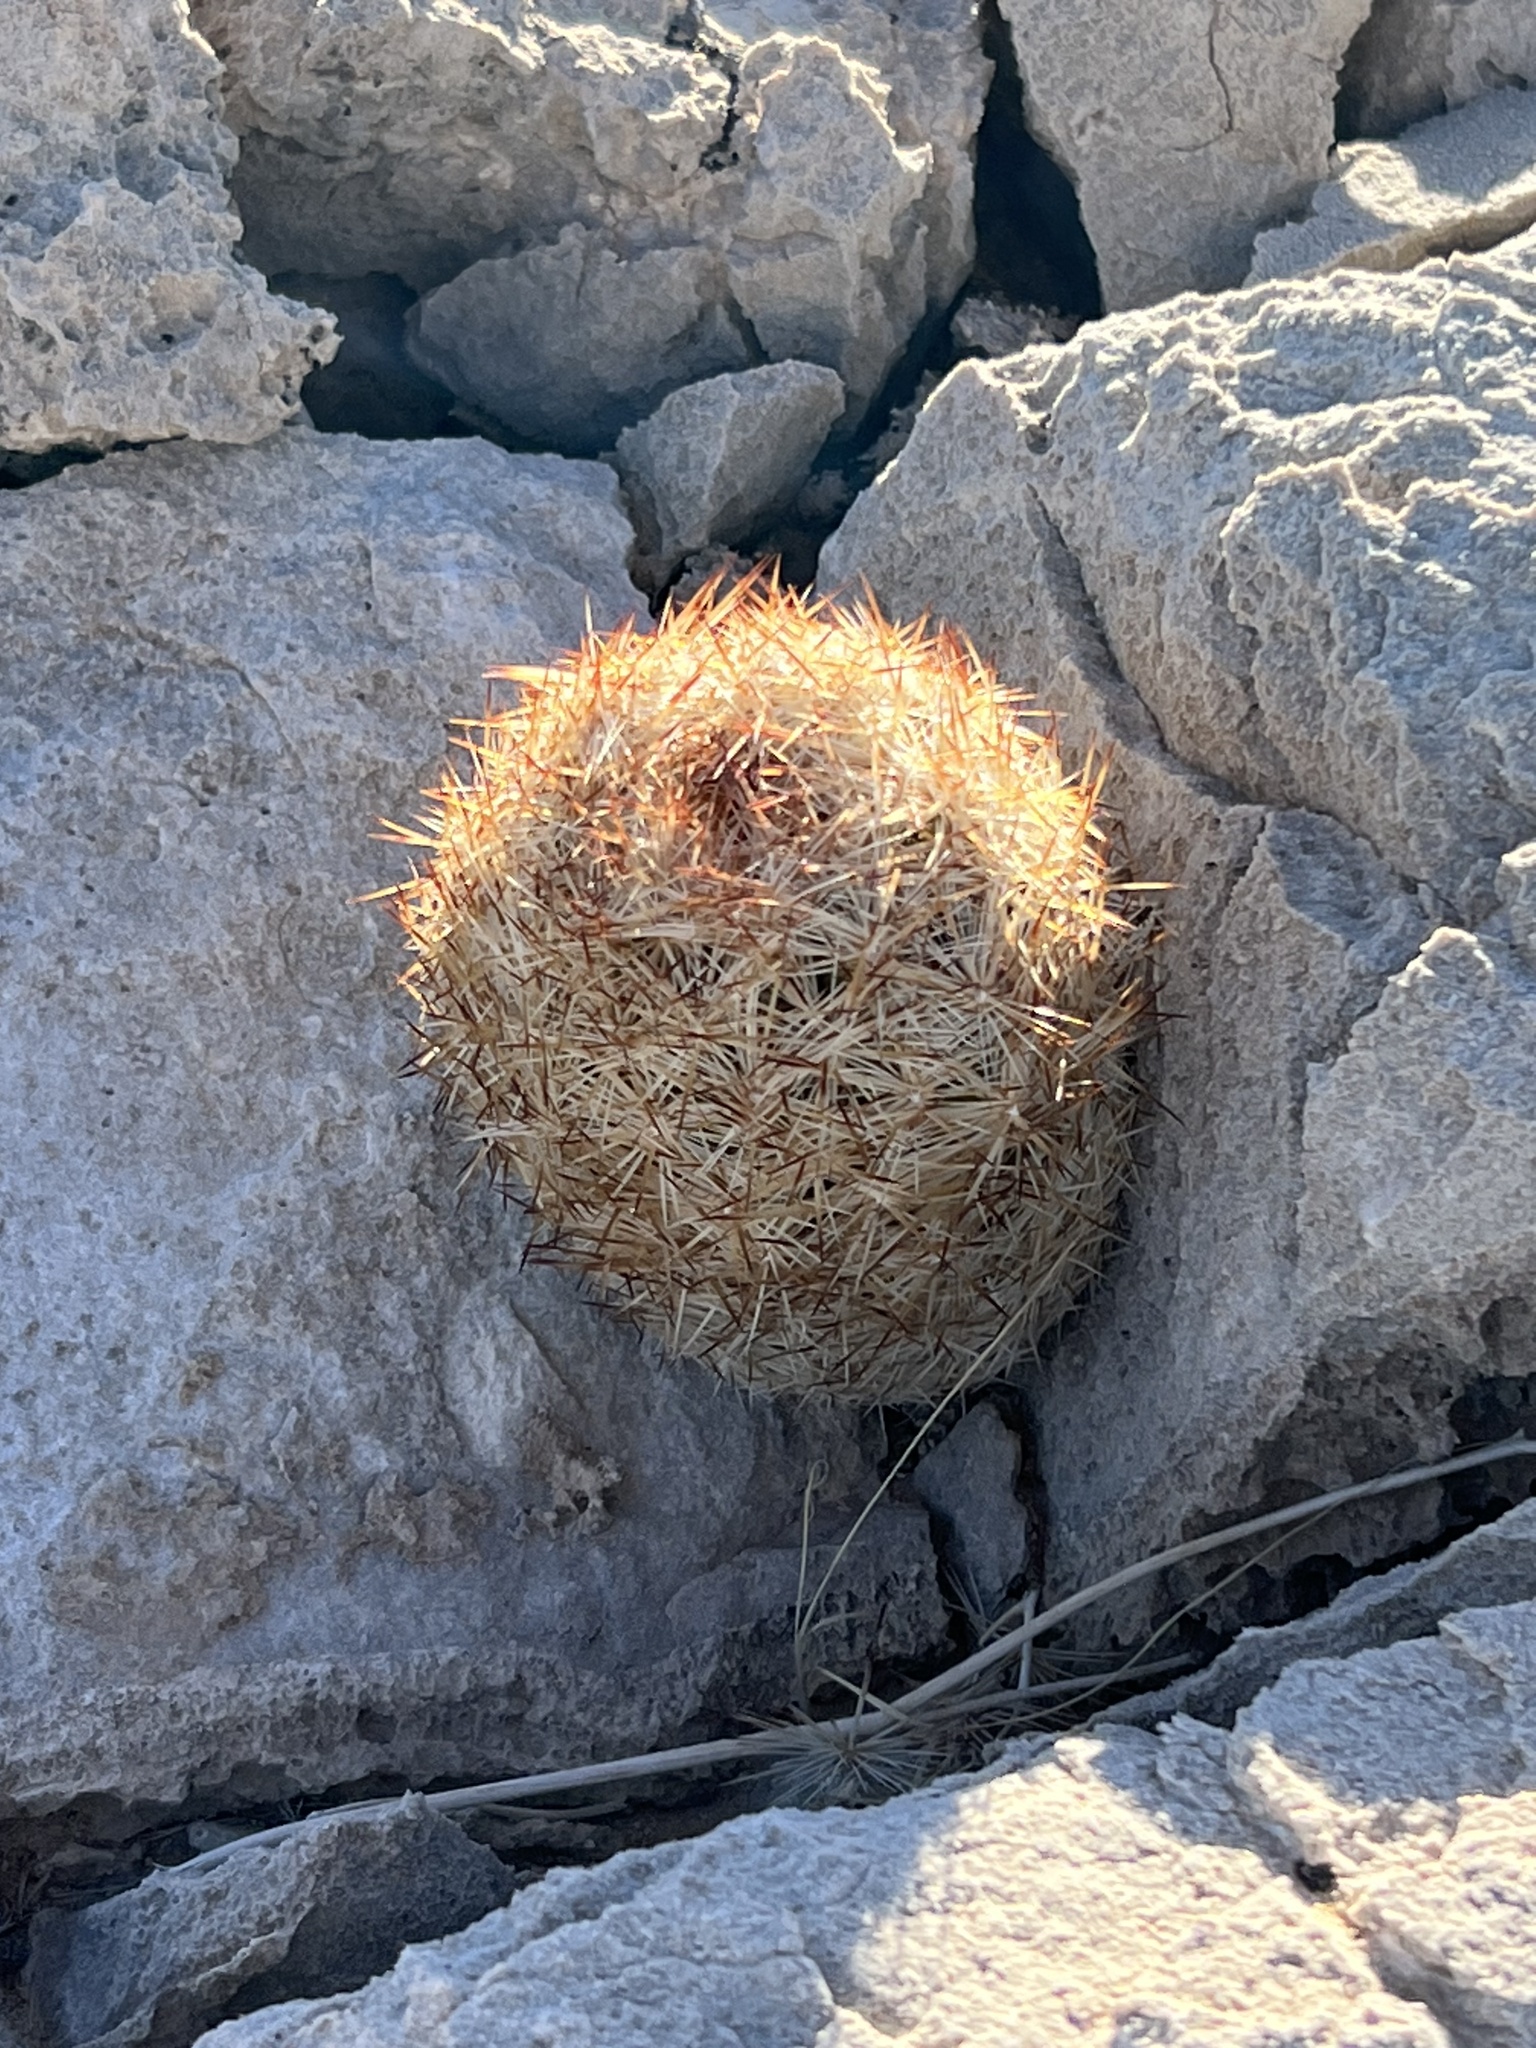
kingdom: Plantae
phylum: Tracheophyta
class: Magnoliopsida
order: Caryophyllales
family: Cactaceae
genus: Pelecyphora
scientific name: Pelecyphora dasyacantha
